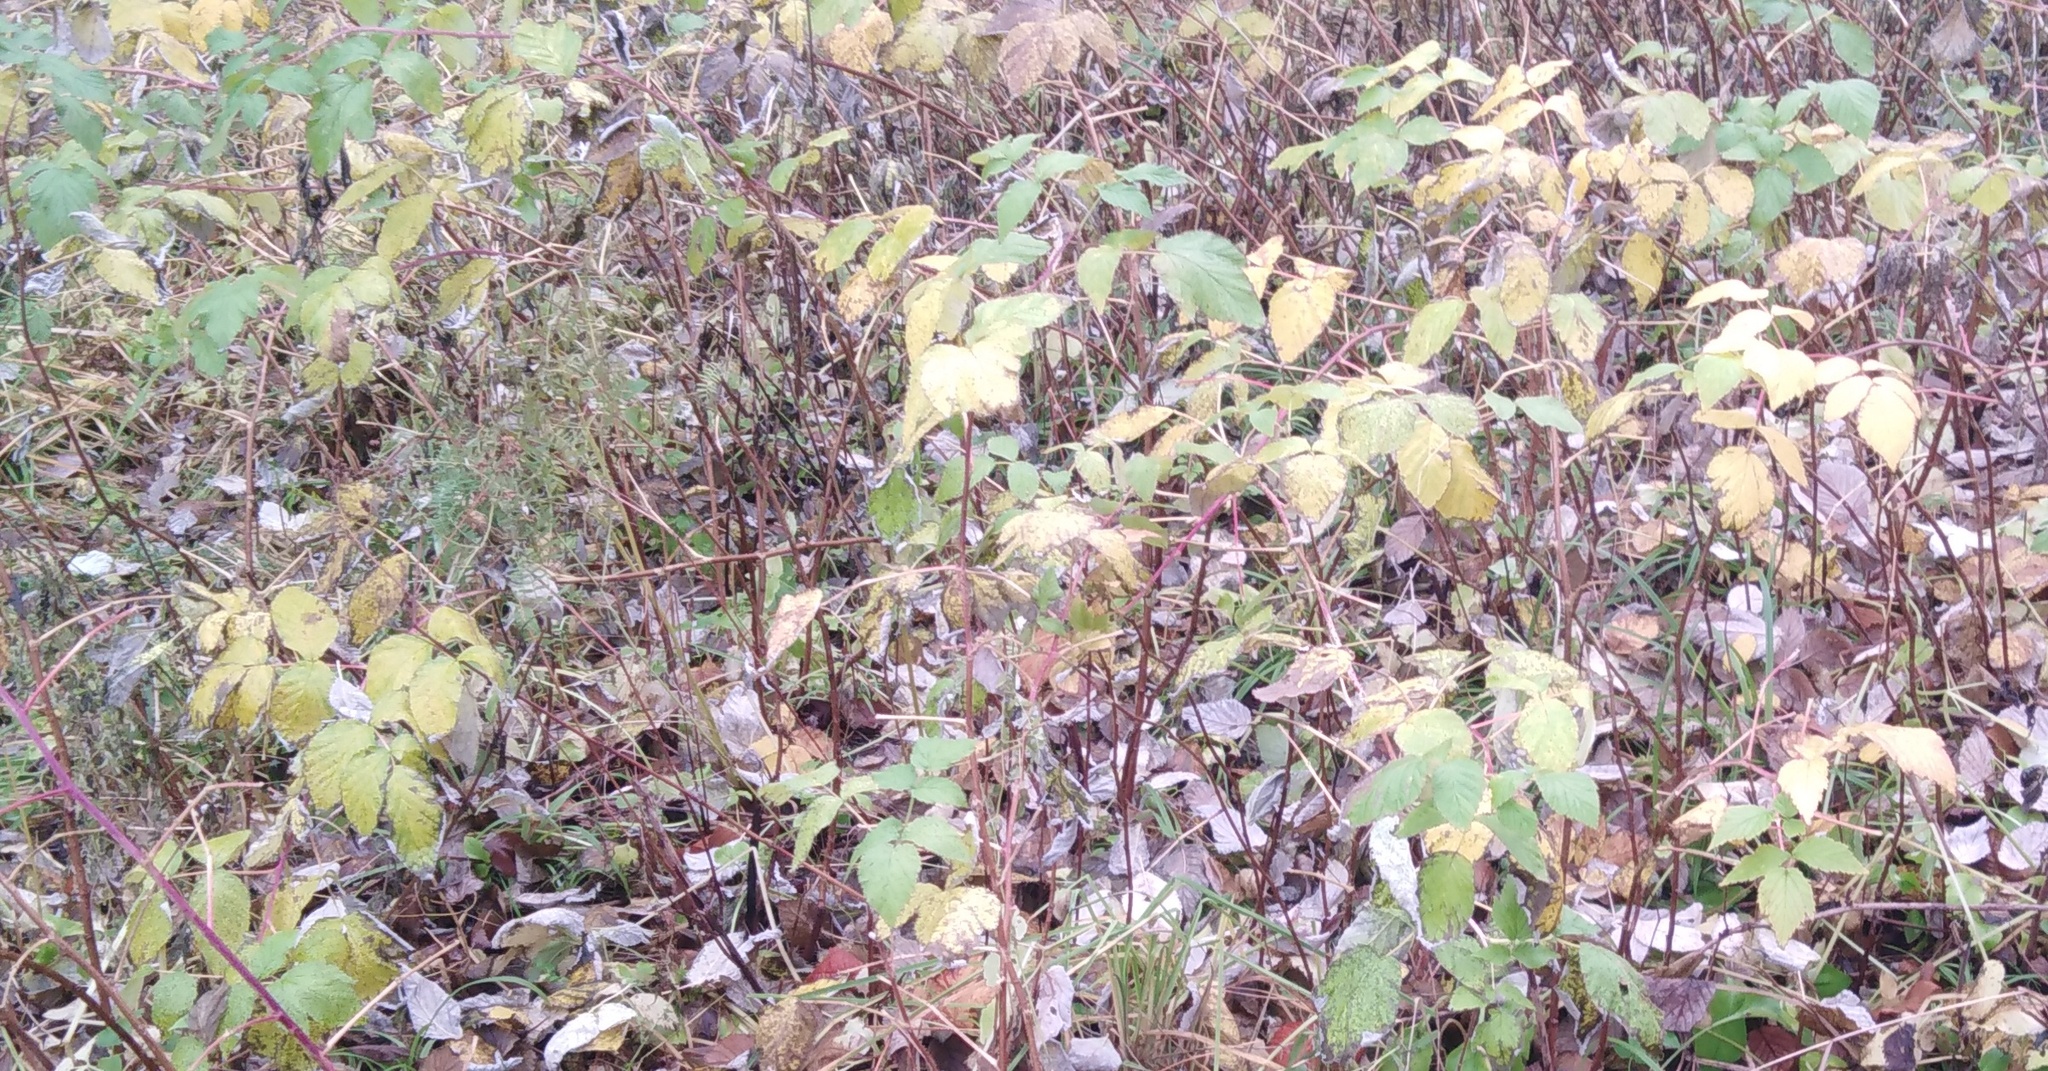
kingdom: Plantae
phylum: Tracheophyta
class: Magnoliopsida
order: Rosales
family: Rosaceae
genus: Rubus
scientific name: Rubus idaeus
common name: Raspberry
